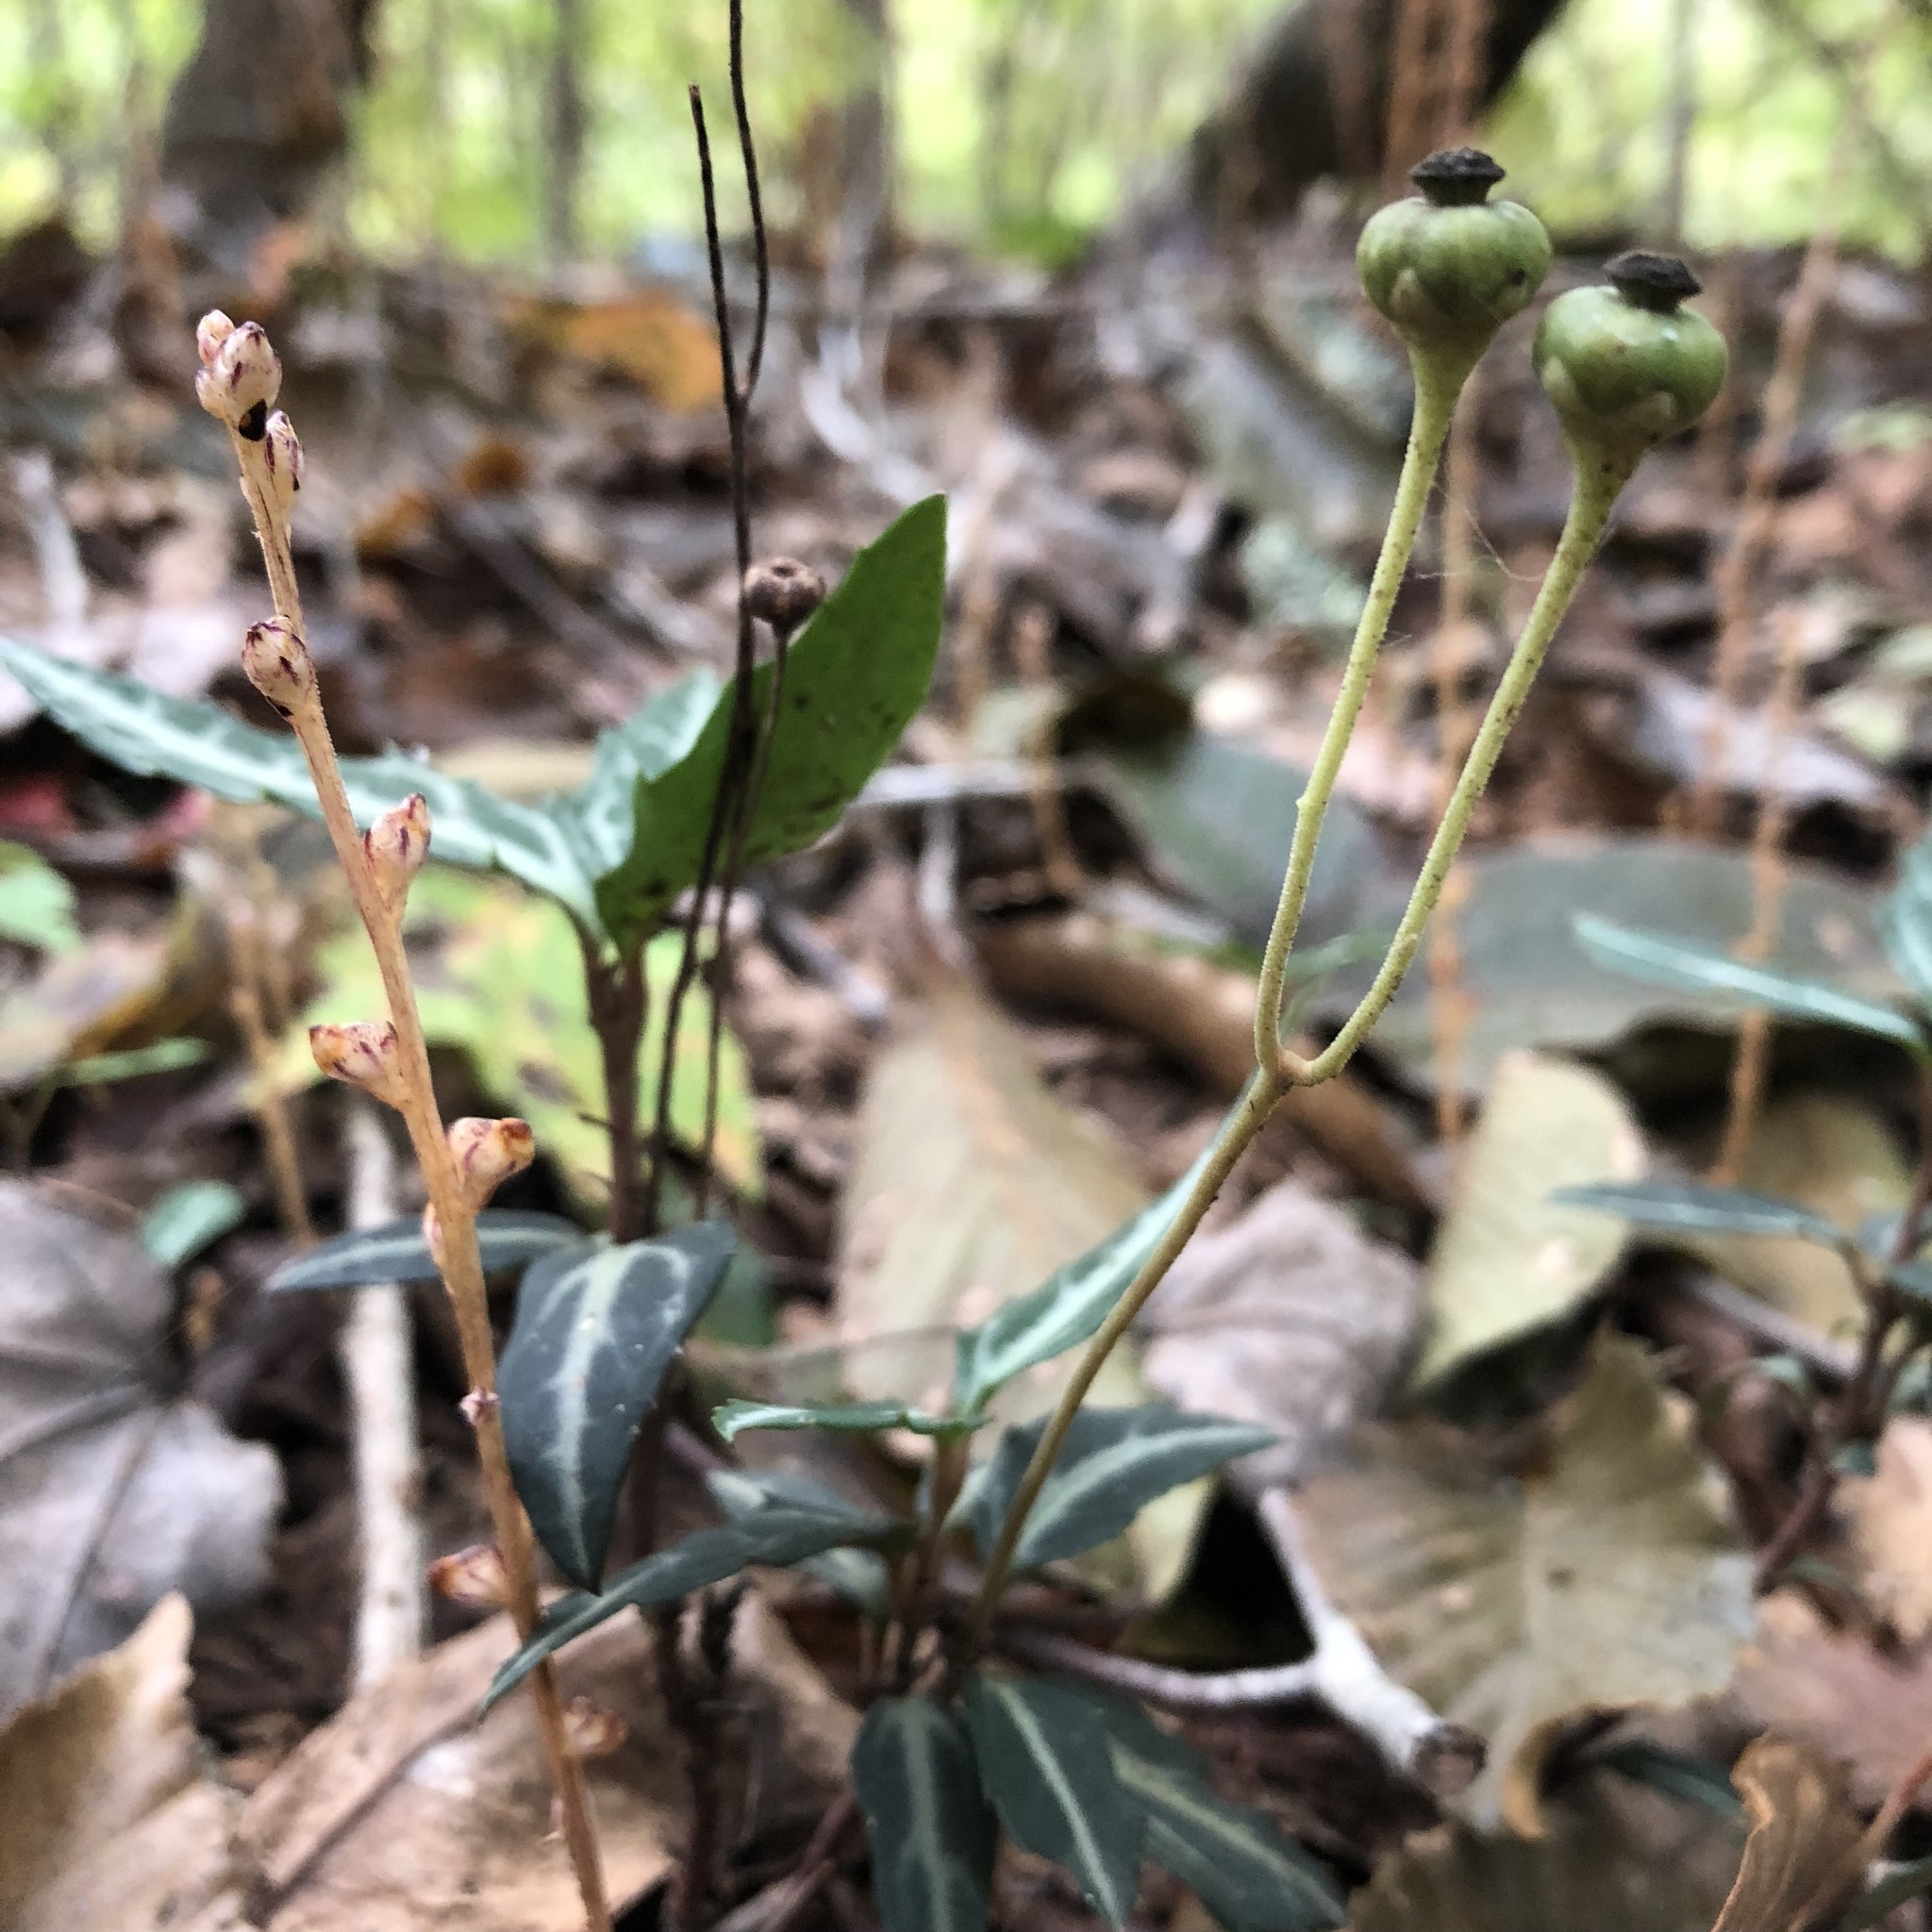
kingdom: Plantae
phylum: Tracheophyta
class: Magnoliopsida
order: Ericales
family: Ericaceae
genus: Chimaphila
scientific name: Chimaphila maculata
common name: Spotted pipsissewa
